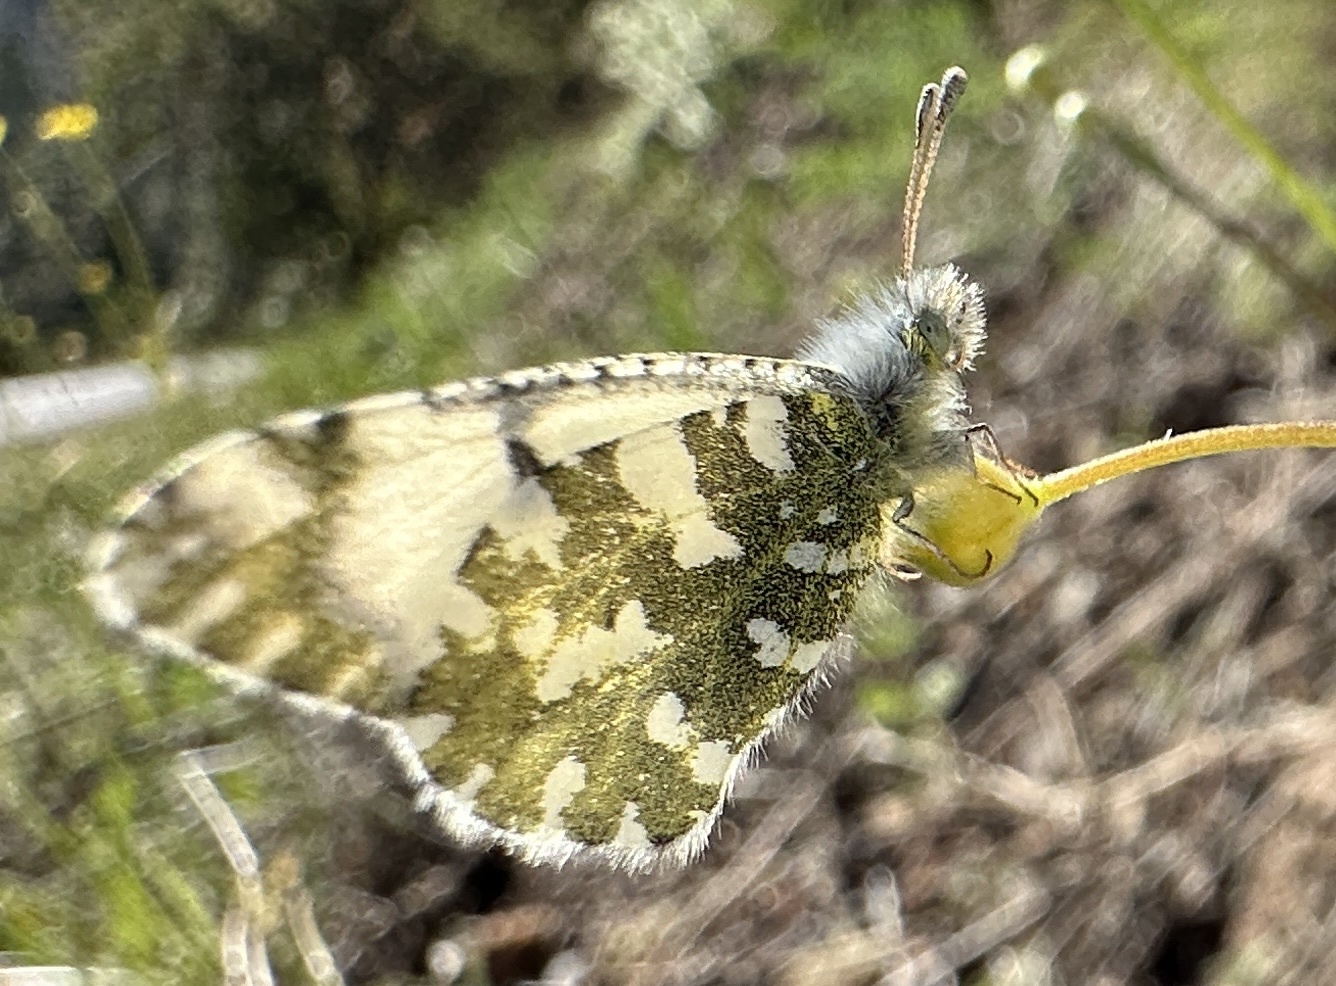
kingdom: Animalia
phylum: Arthropoda
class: Insecta
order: Lepidoptera
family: Pieridae
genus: Euchloe
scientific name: Euchloe hyantis
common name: California marble
